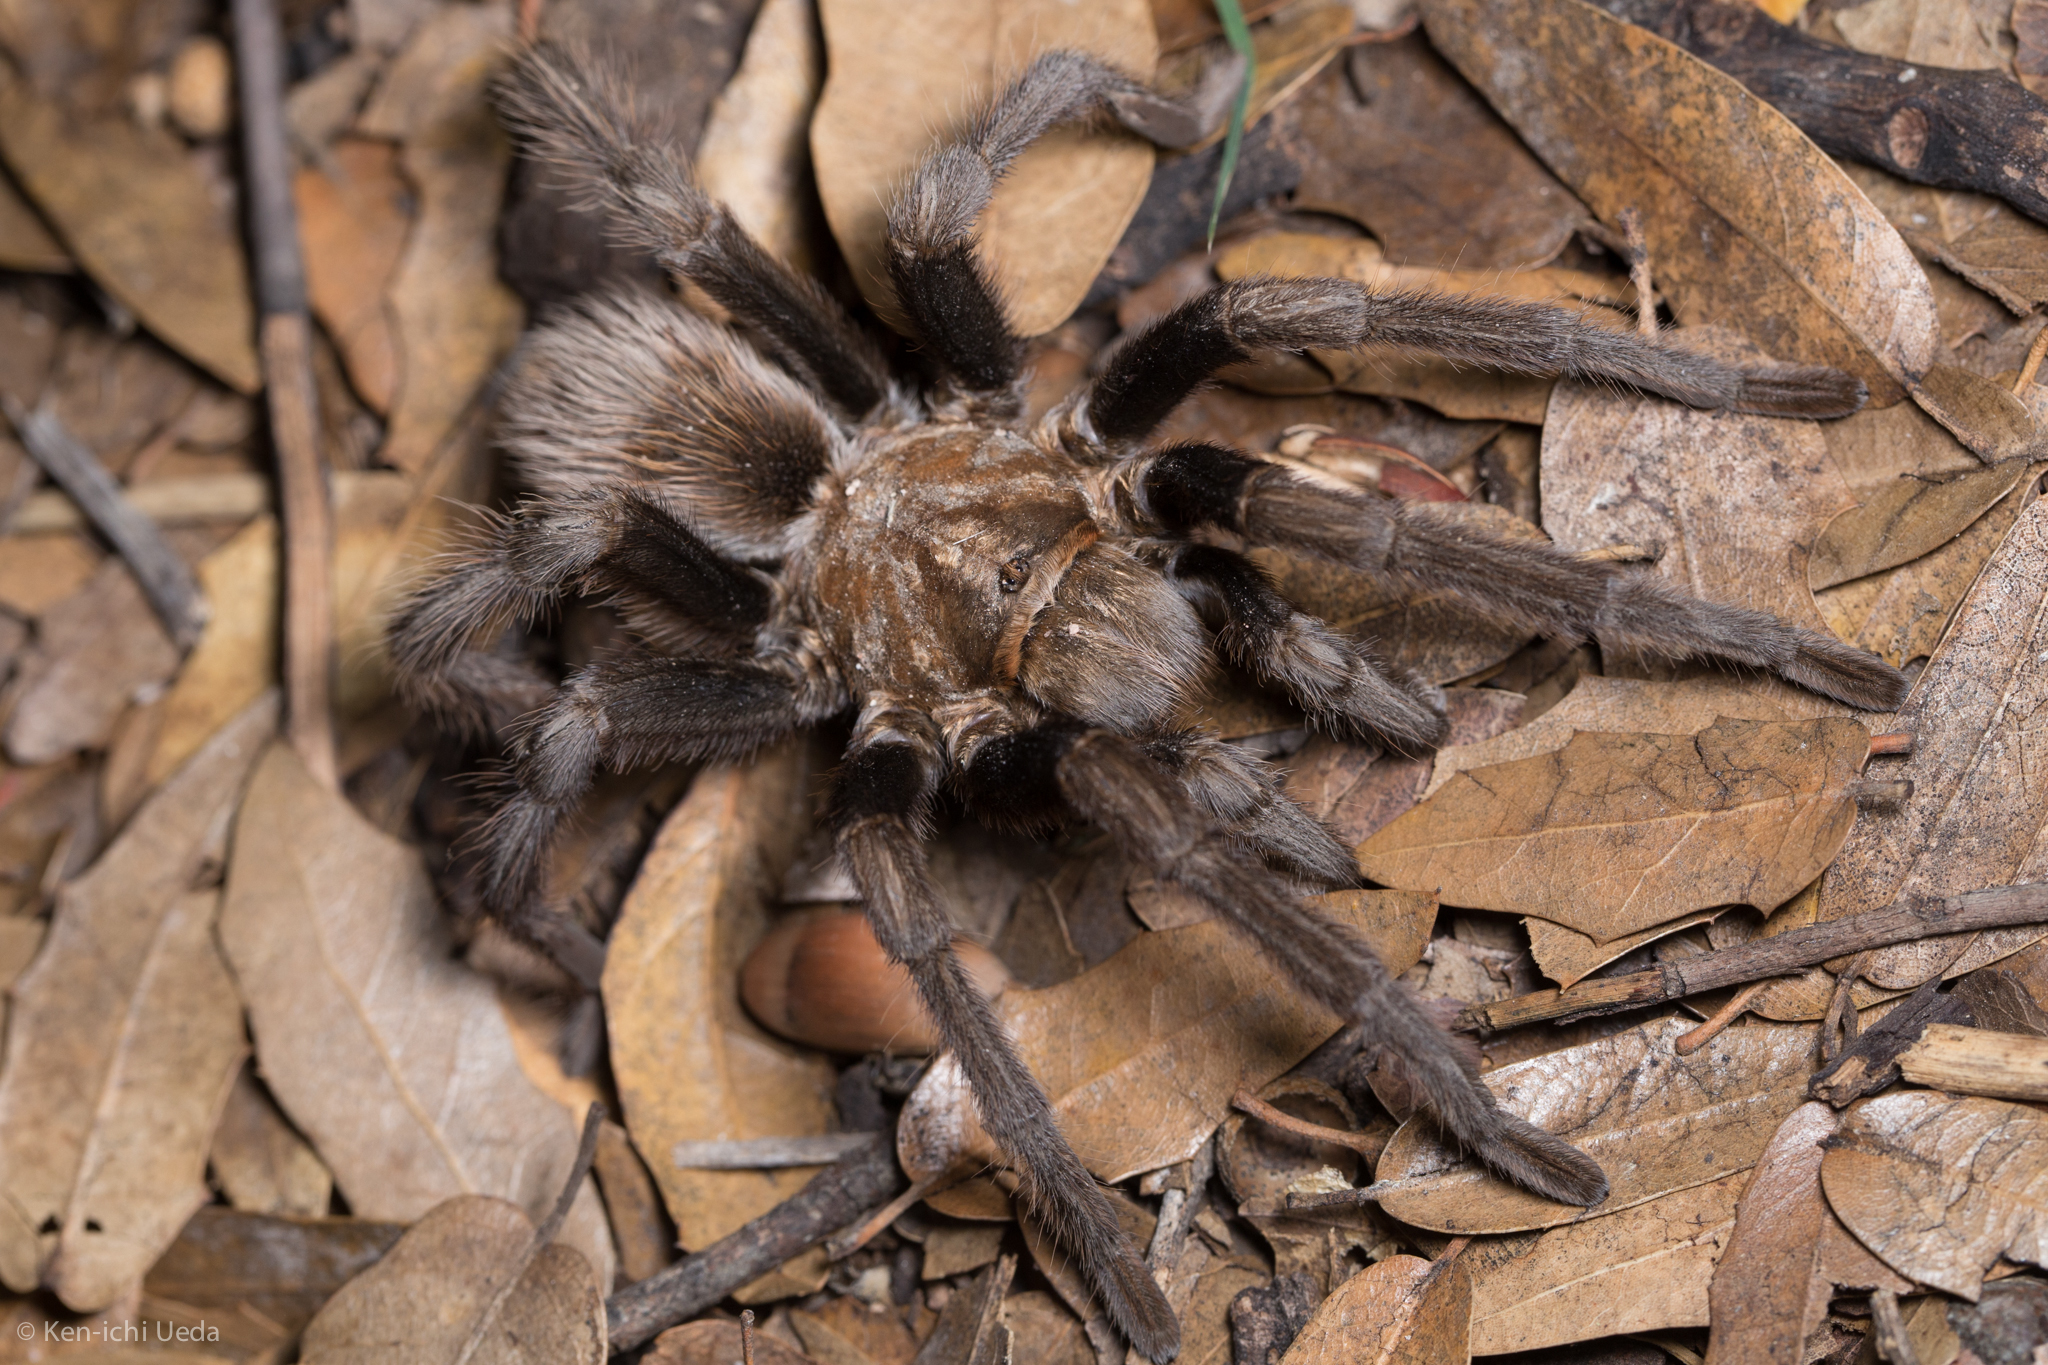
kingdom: Animalia
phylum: Arthropoda
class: Arachnida
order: Araneae
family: Theraphosidae
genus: Aphonopelma
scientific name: Aphonopelma chalcodes
